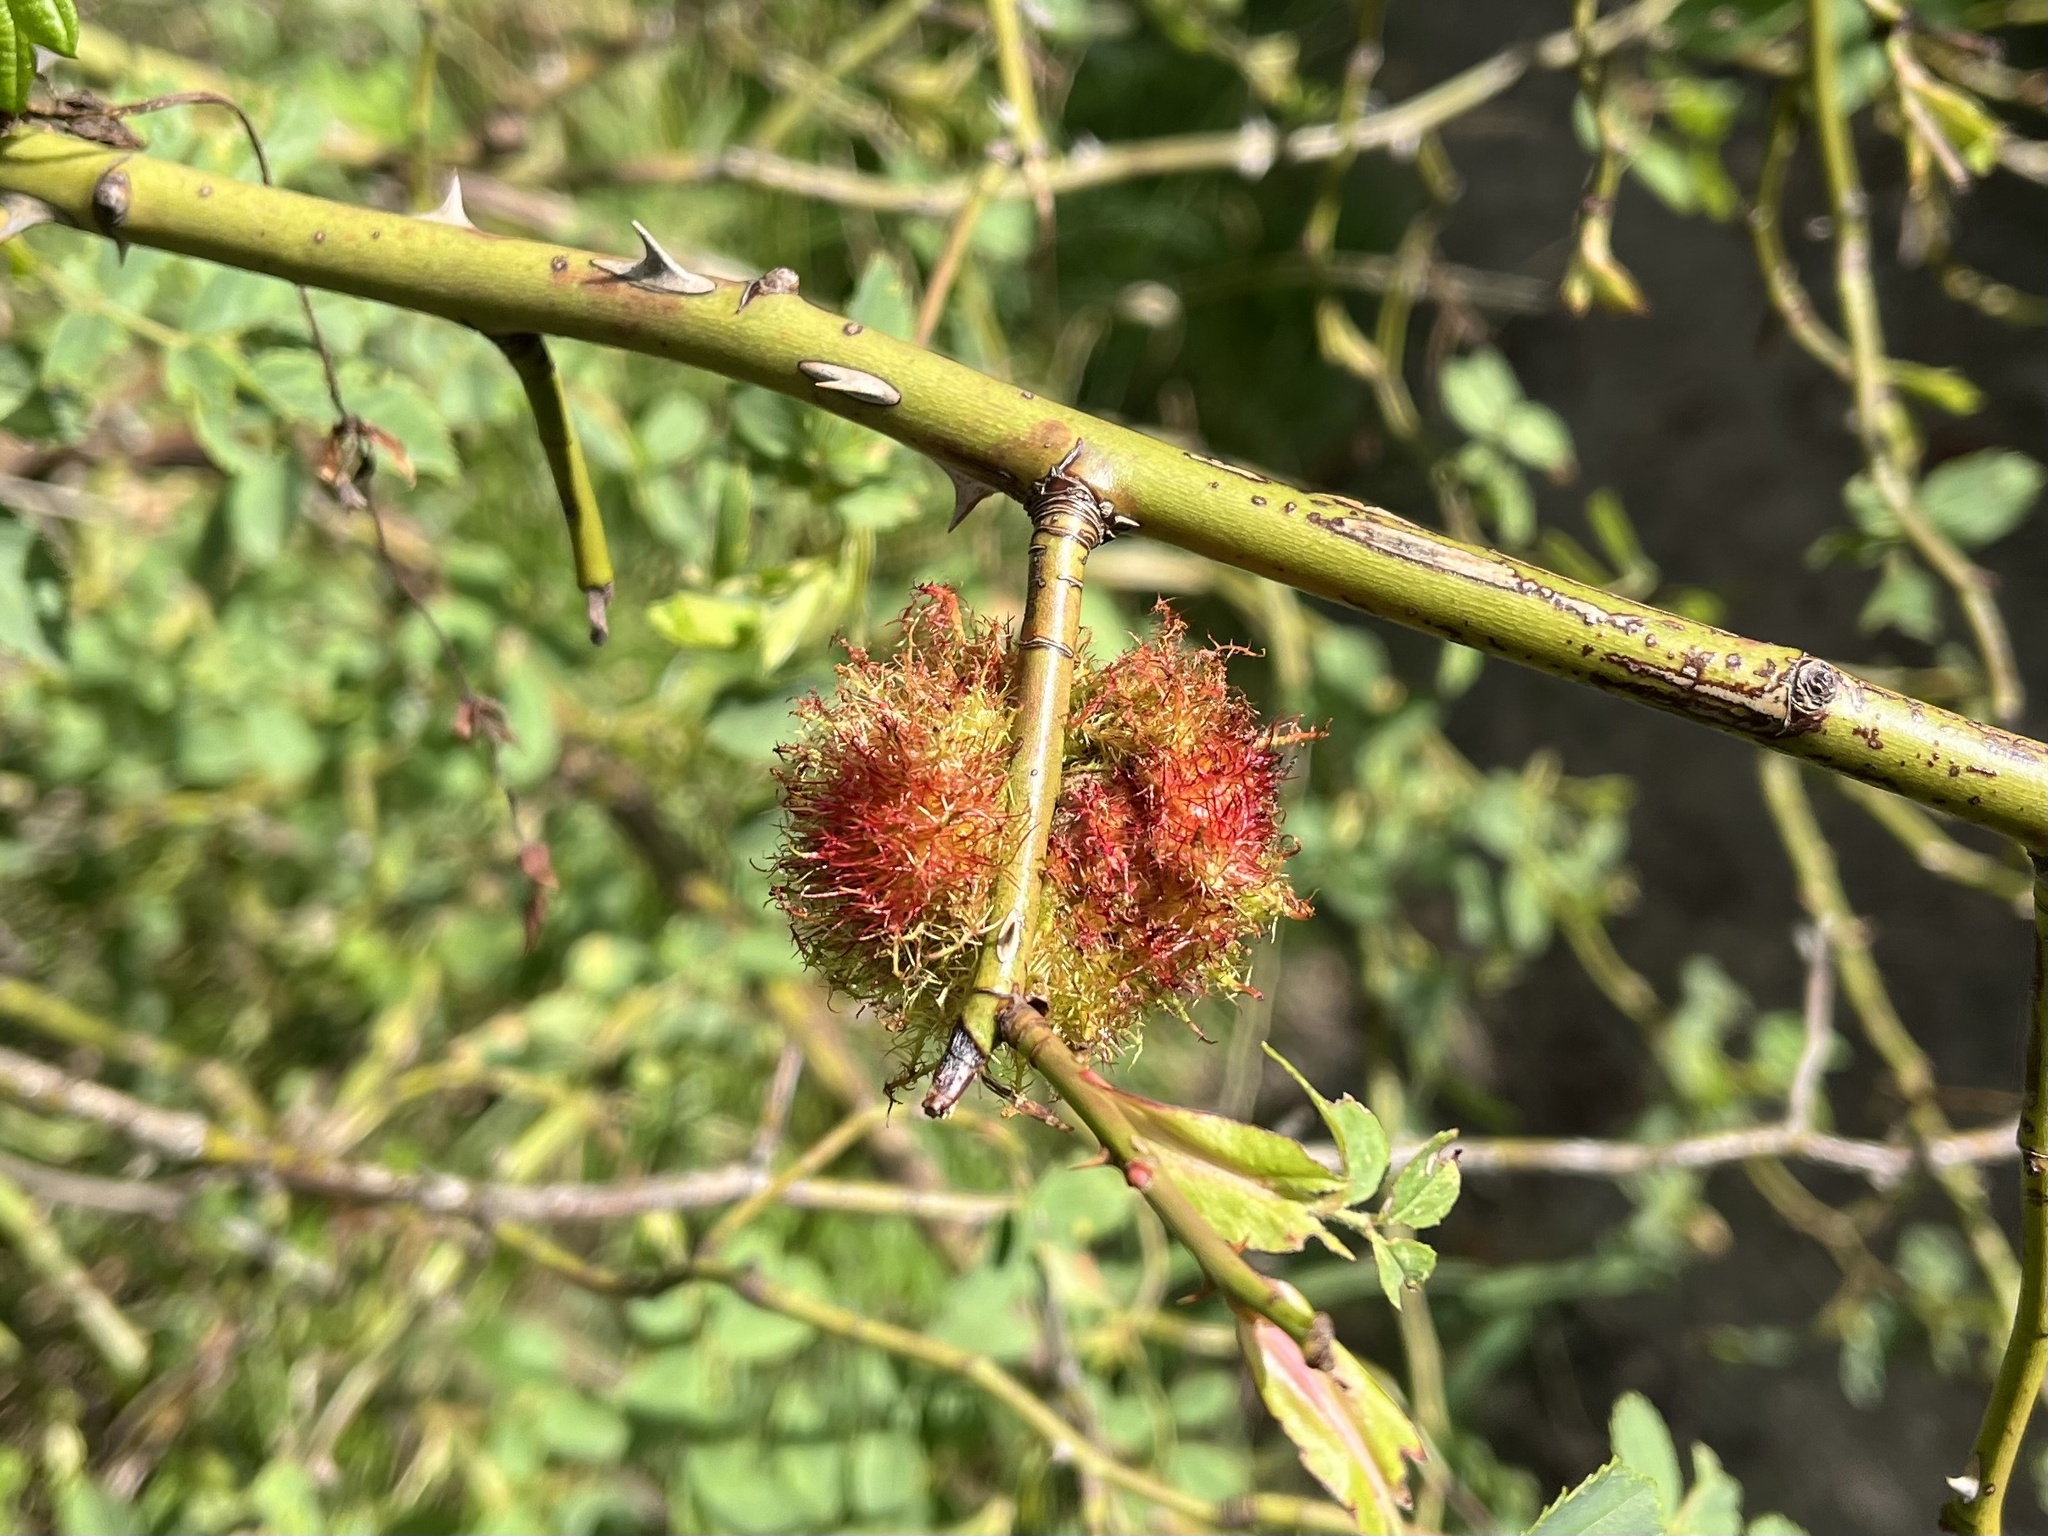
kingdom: Animalia
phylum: Arthropoda
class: Insecta
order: Hymenoptera
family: Cynipidae
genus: Diplolepis
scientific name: Diplolepis rosae
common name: Bedeguar gall
